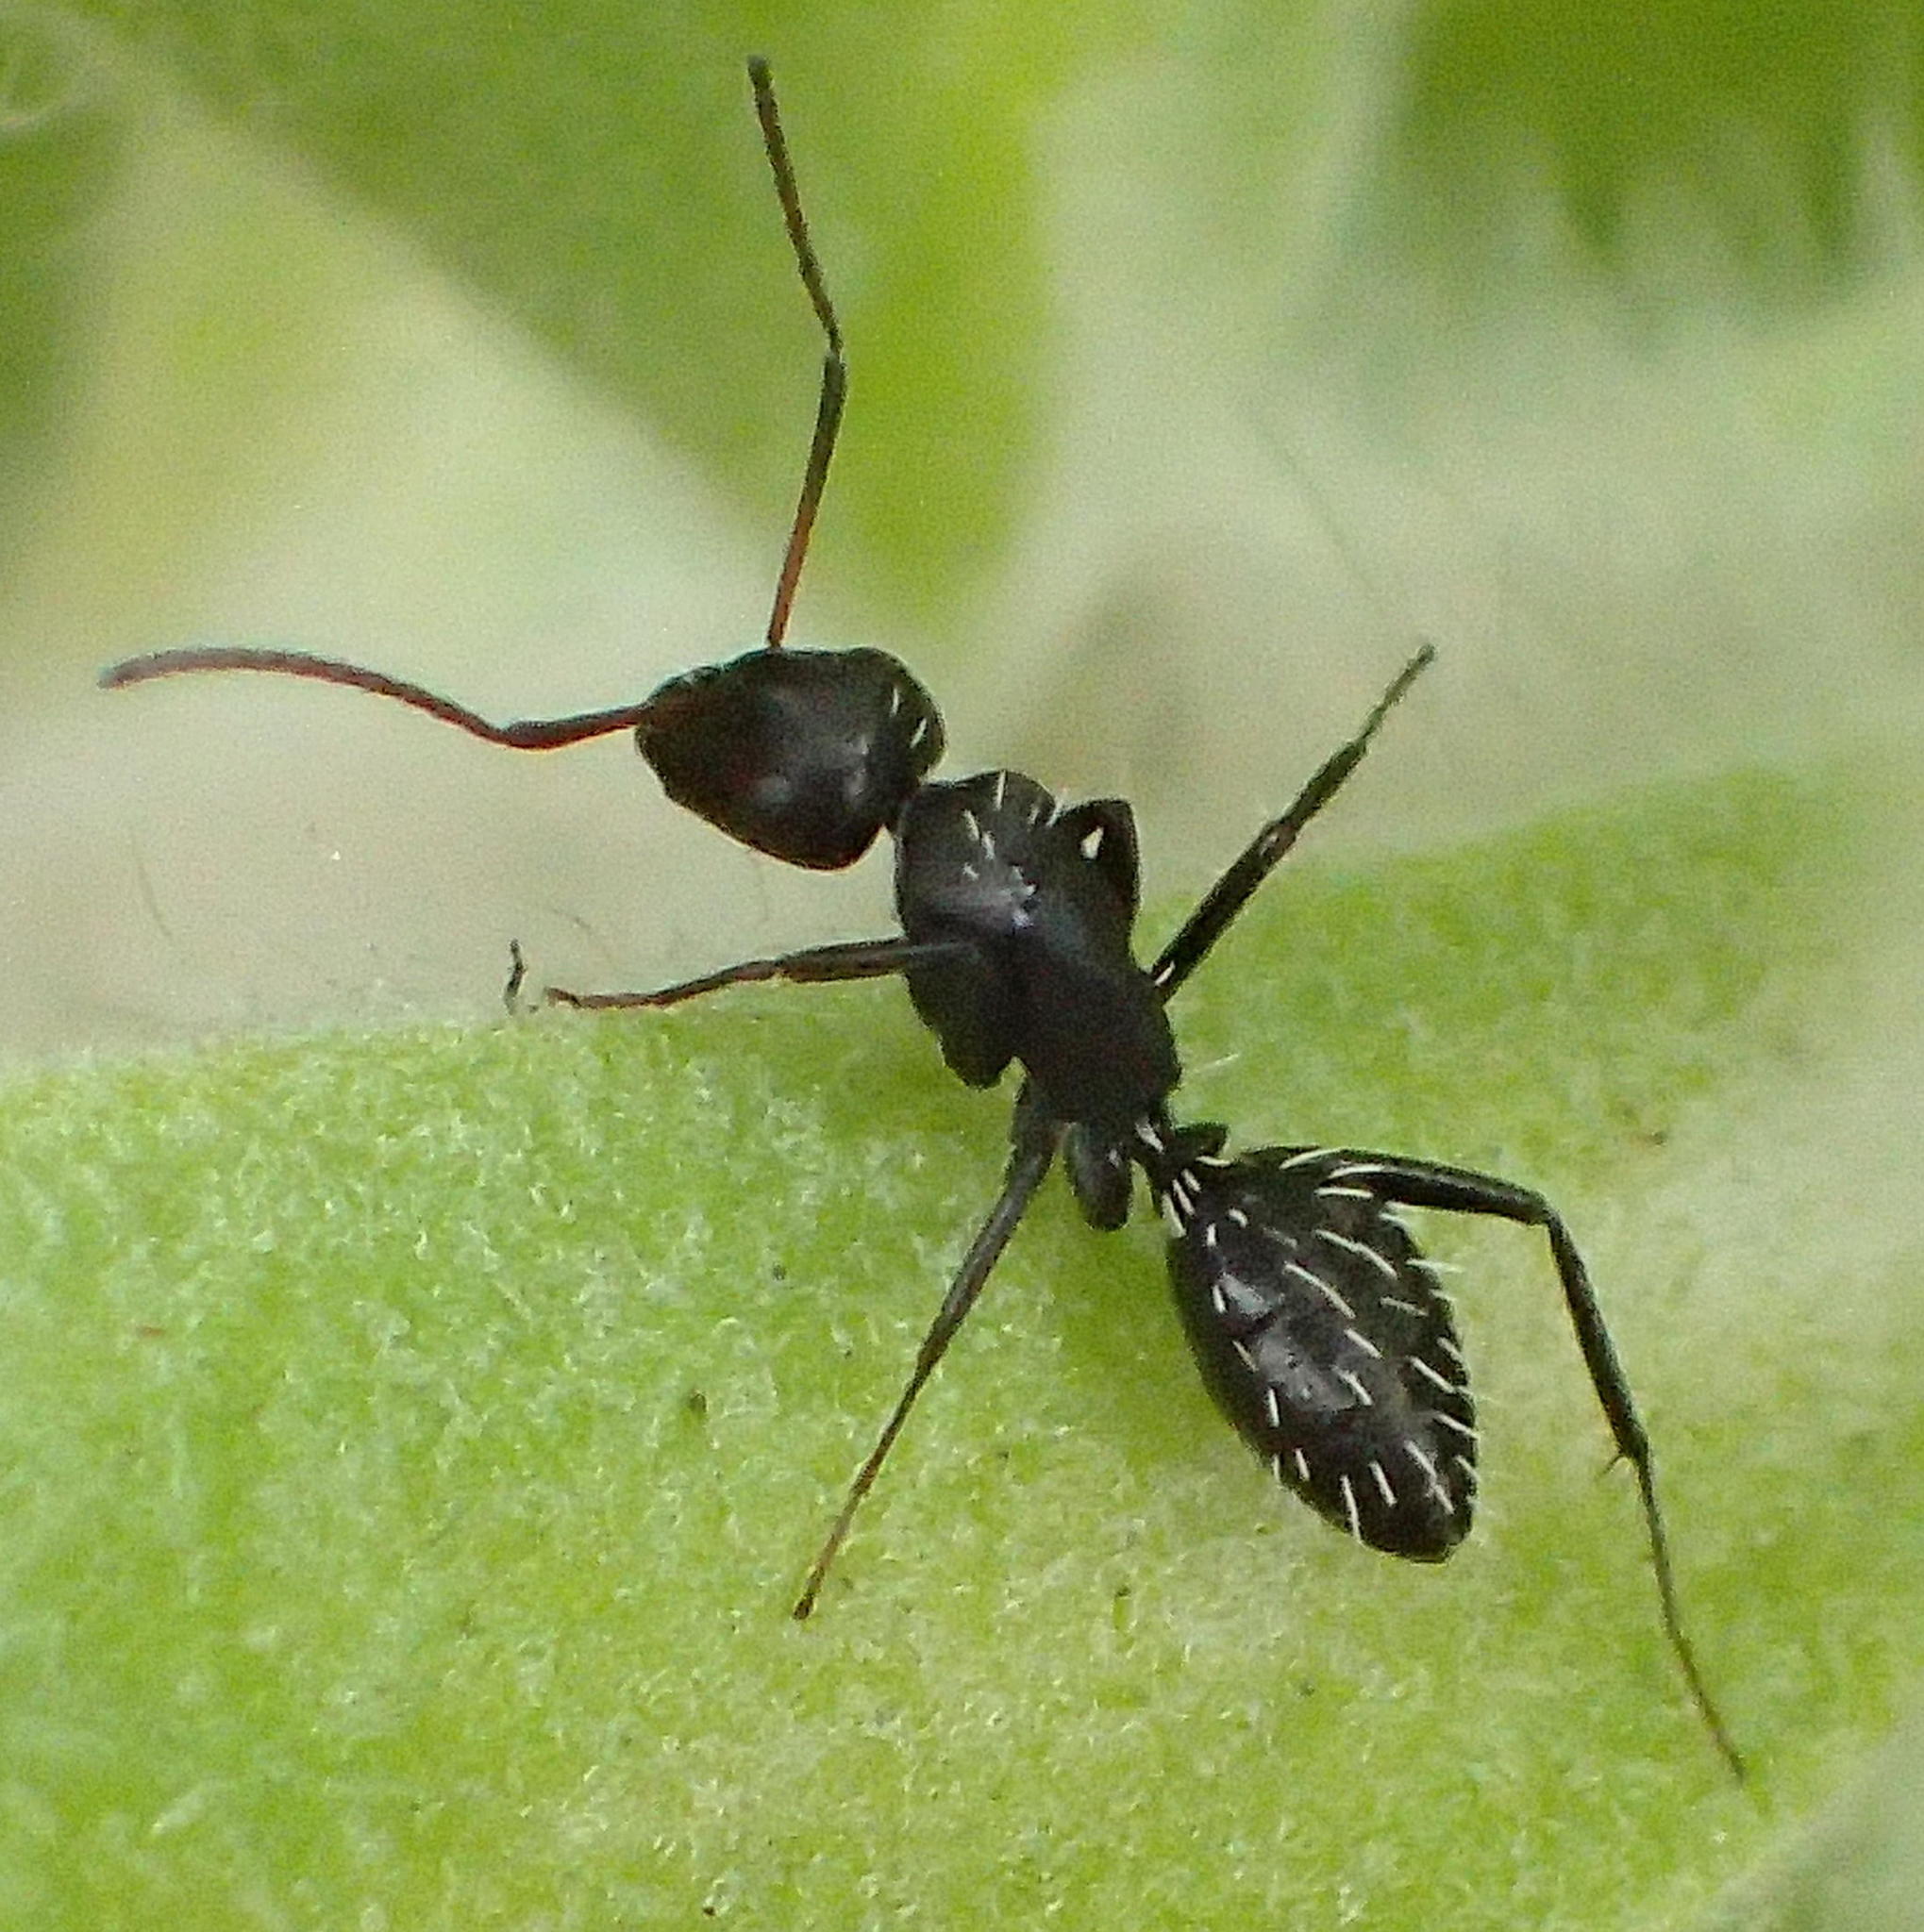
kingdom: Animalia
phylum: Arthropoda
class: Insecta
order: Hymenoptera
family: Formicidae
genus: Camponotus
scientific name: Camponotus niveosetosus
